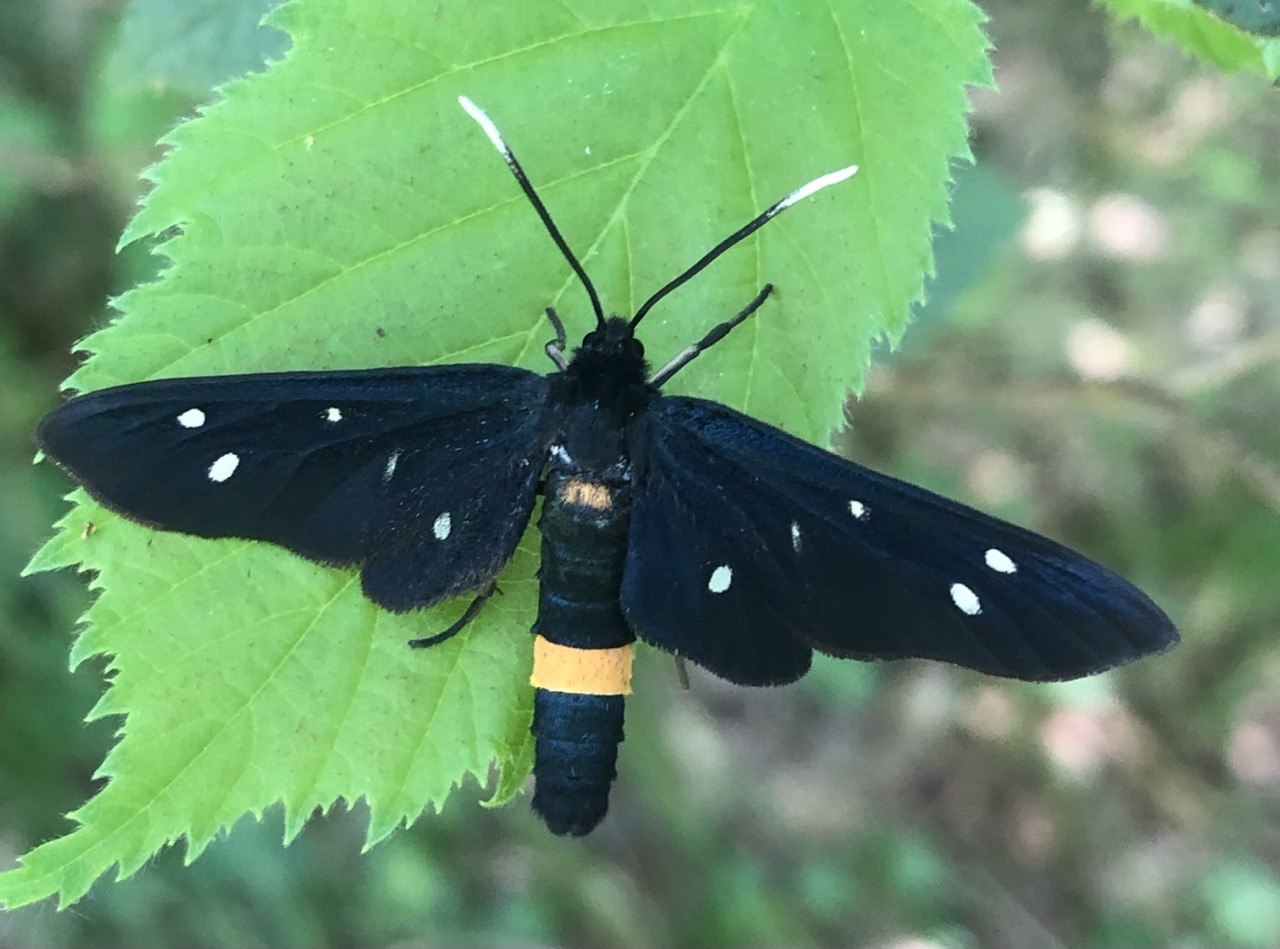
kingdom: Animalia
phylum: Arthropoda
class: Insecta
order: Lepidoptera
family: Erebidae
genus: Amata
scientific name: Amata phegea
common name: Nine-spotted
